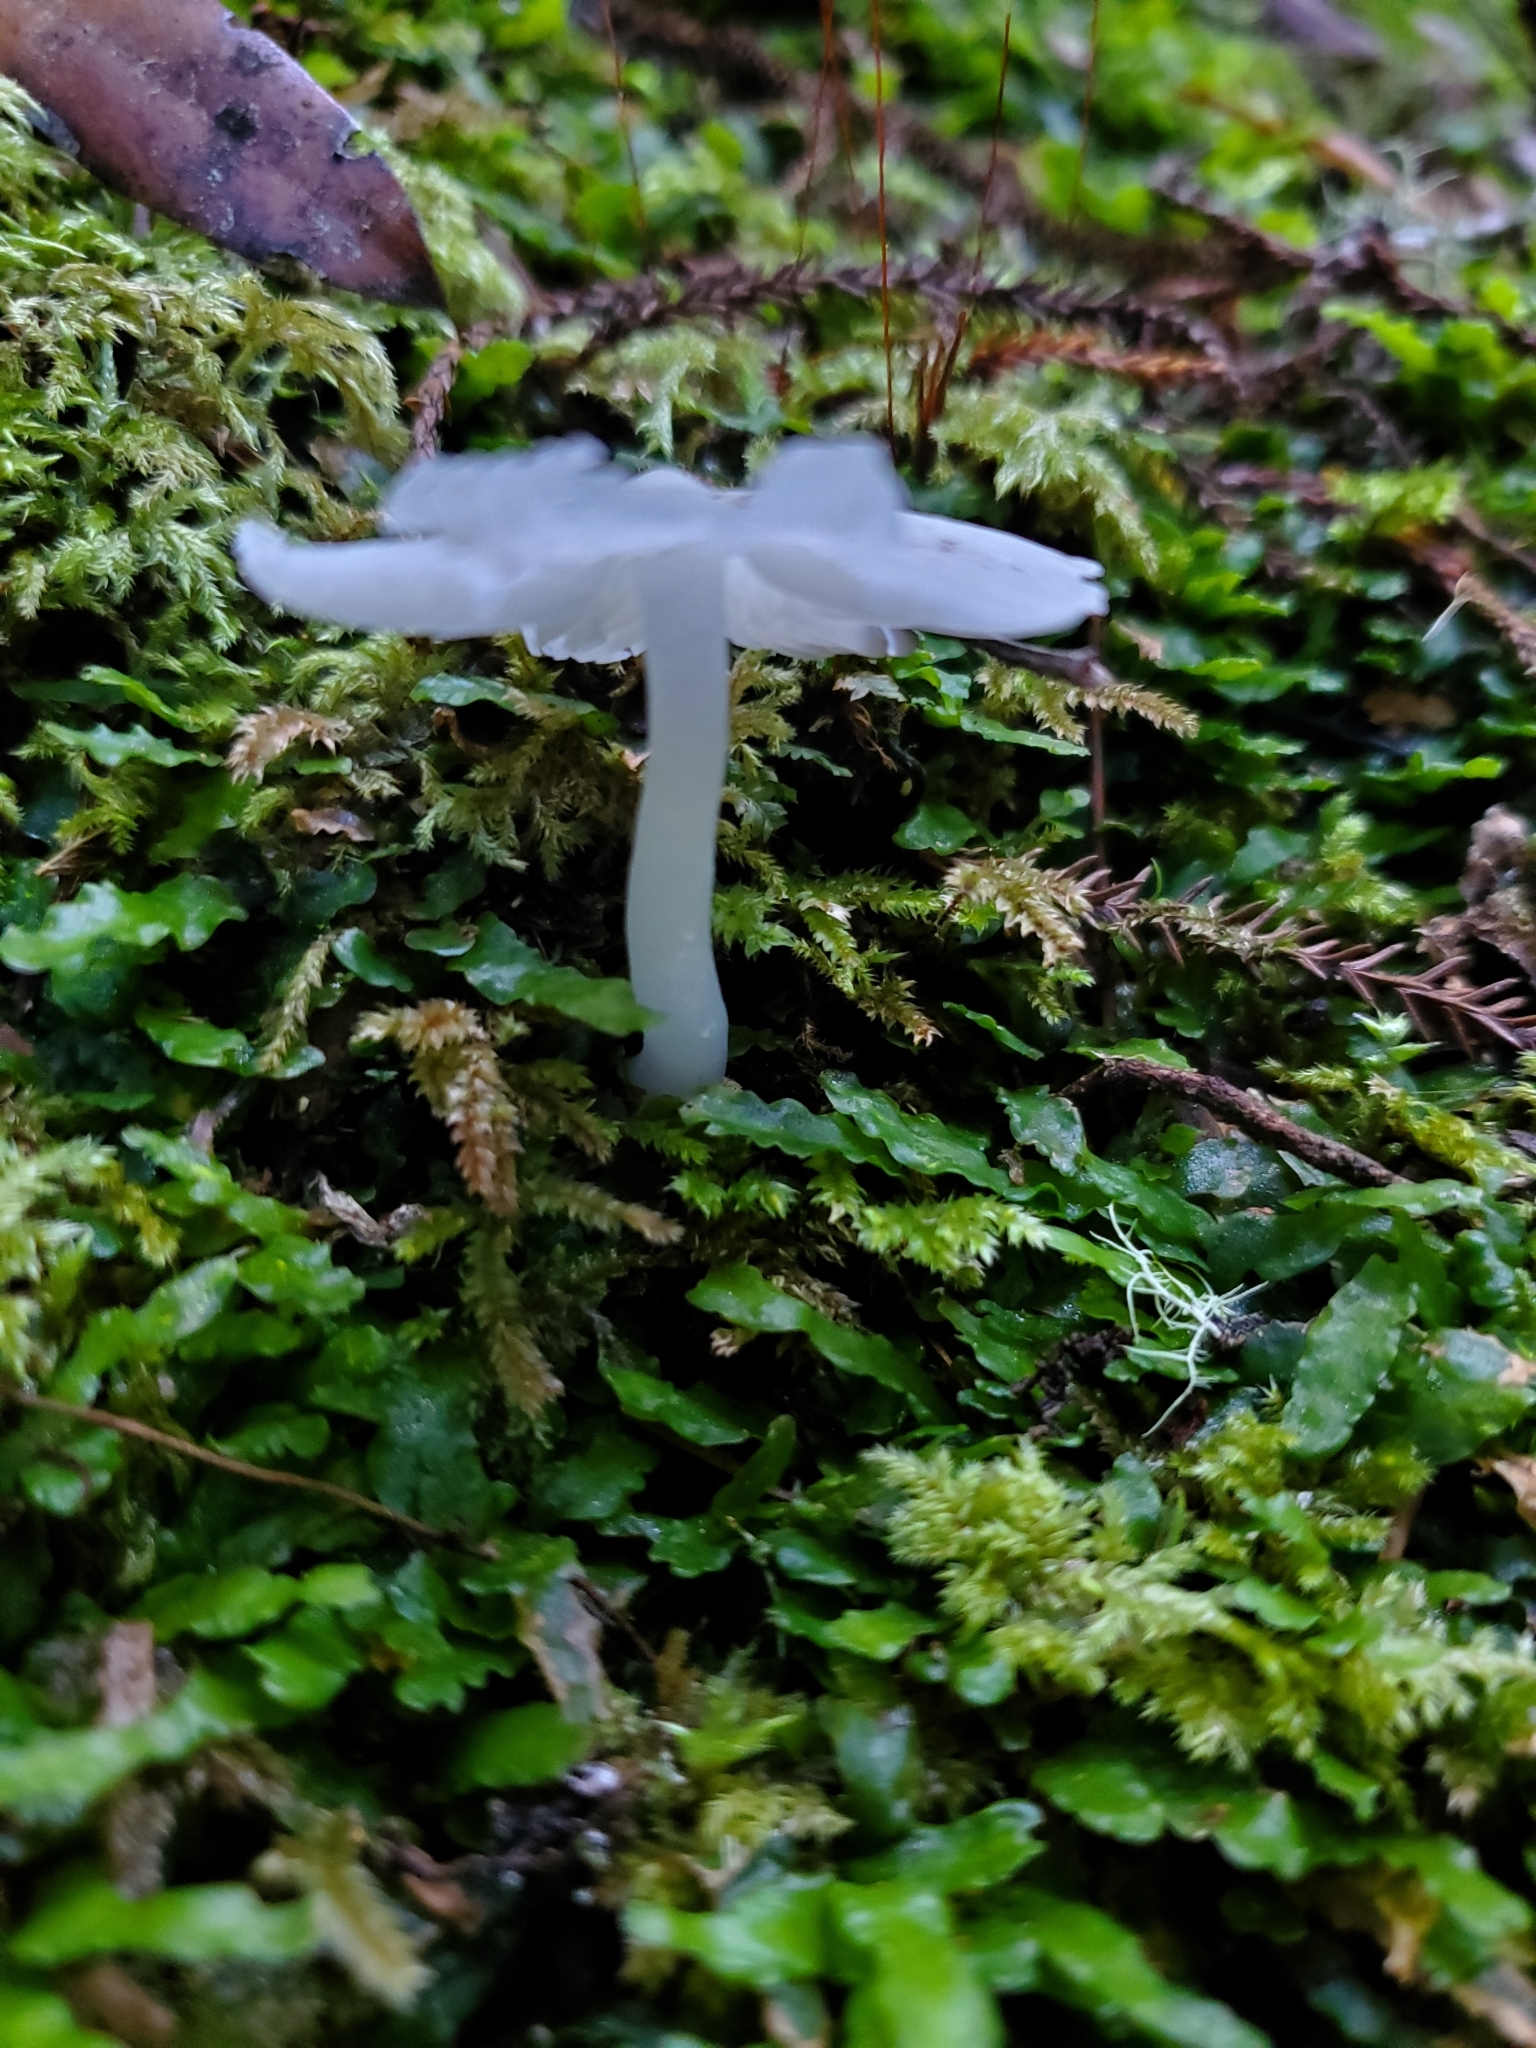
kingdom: Fungi
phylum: Basidiomycota
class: Agaricomycetes
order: Agaricales
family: Hygrophoraceae
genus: Humidicutis
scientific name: Humidicutis mavis
